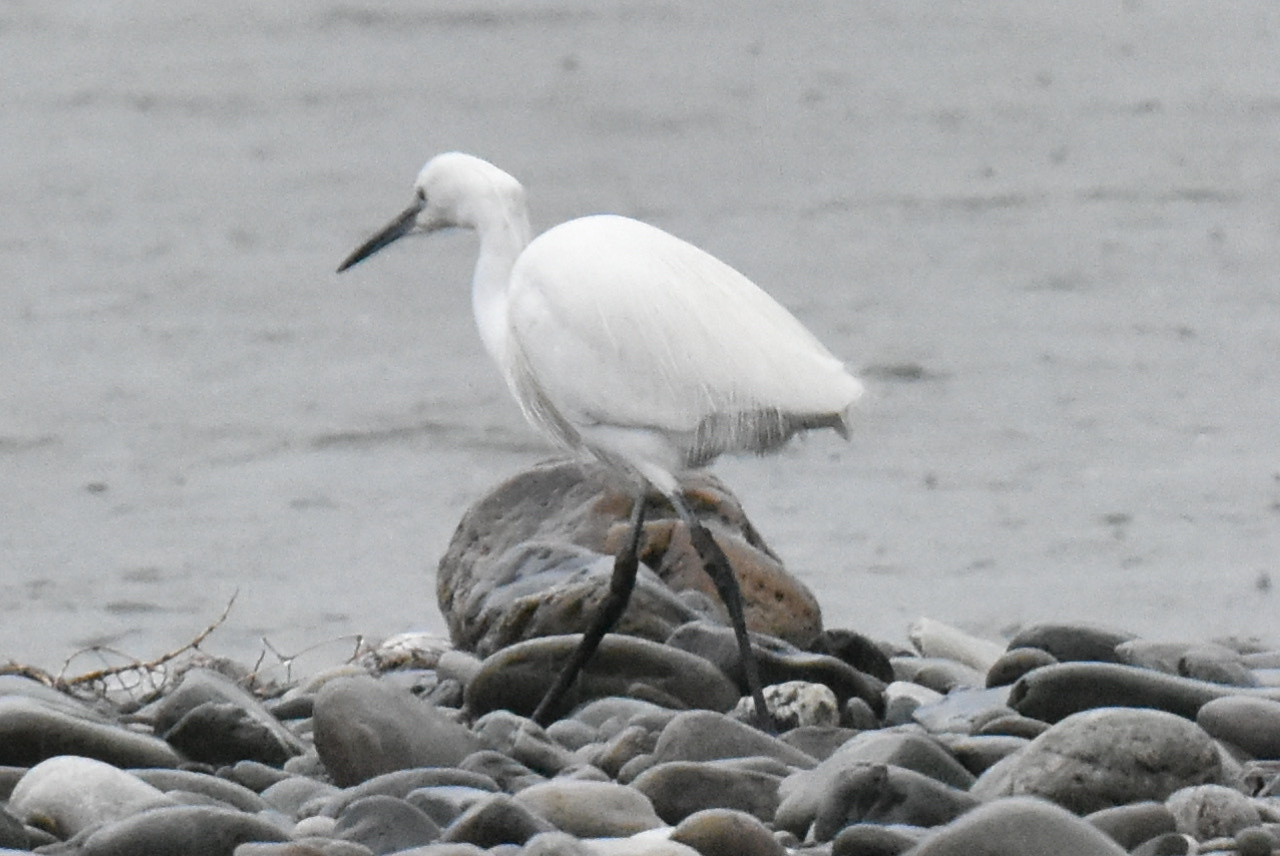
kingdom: Animalia
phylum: Chordata
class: Aves
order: Pelecaniformes
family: Ardeidae
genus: Egretta
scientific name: Egretta garzetta
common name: Little egret
